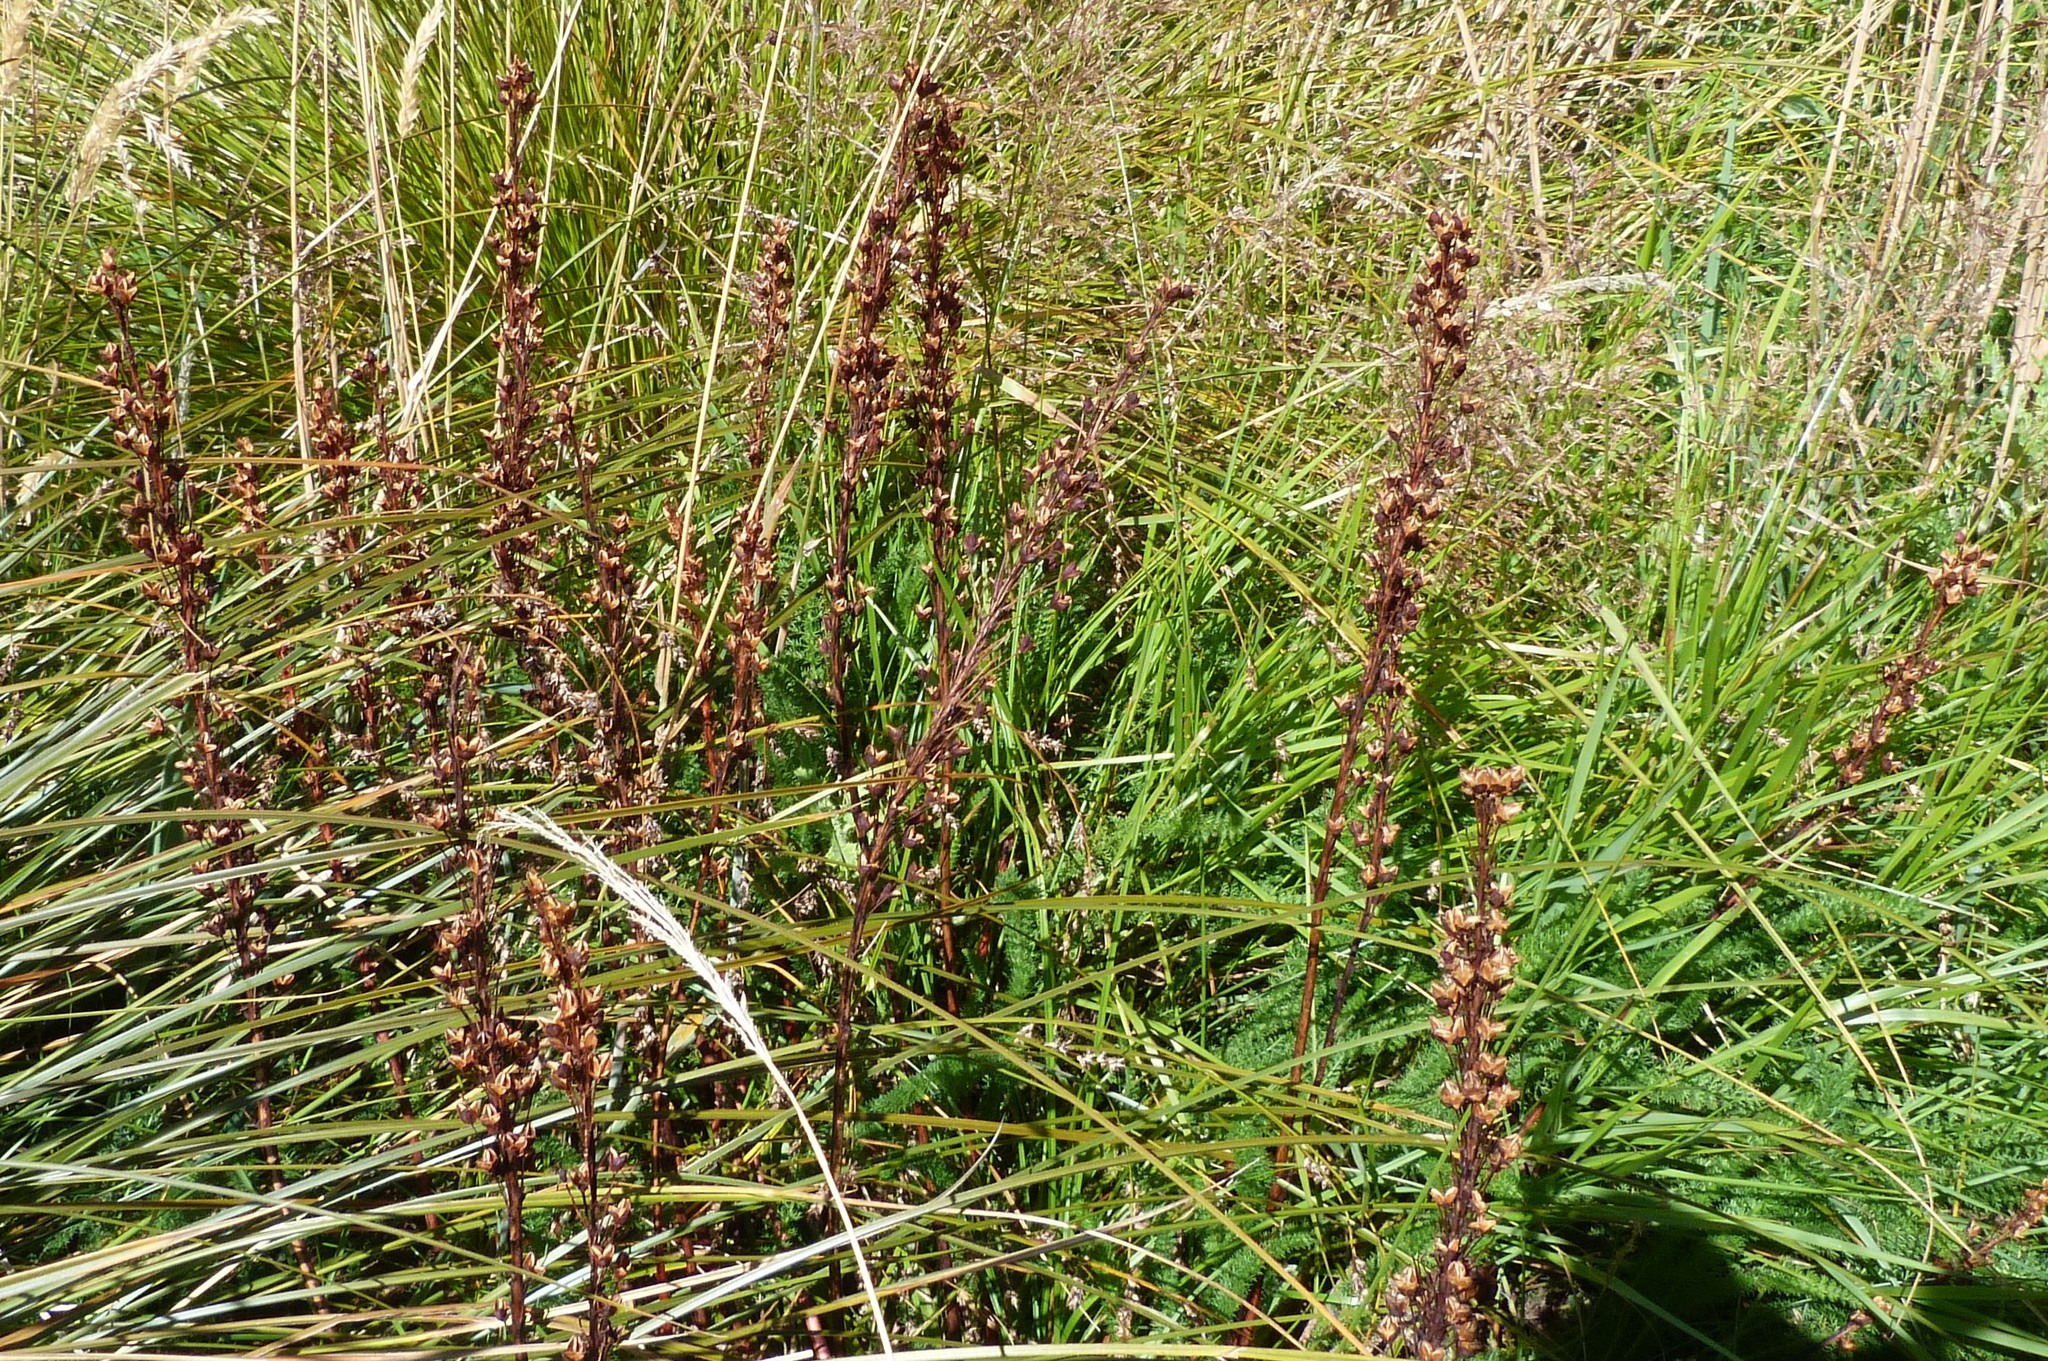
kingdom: Plantae
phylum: Tracheophyta
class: Liliopsida
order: Asparagales
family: Asphodelaceae
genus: Bulbinella
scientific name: Bulbinella angustifolia
